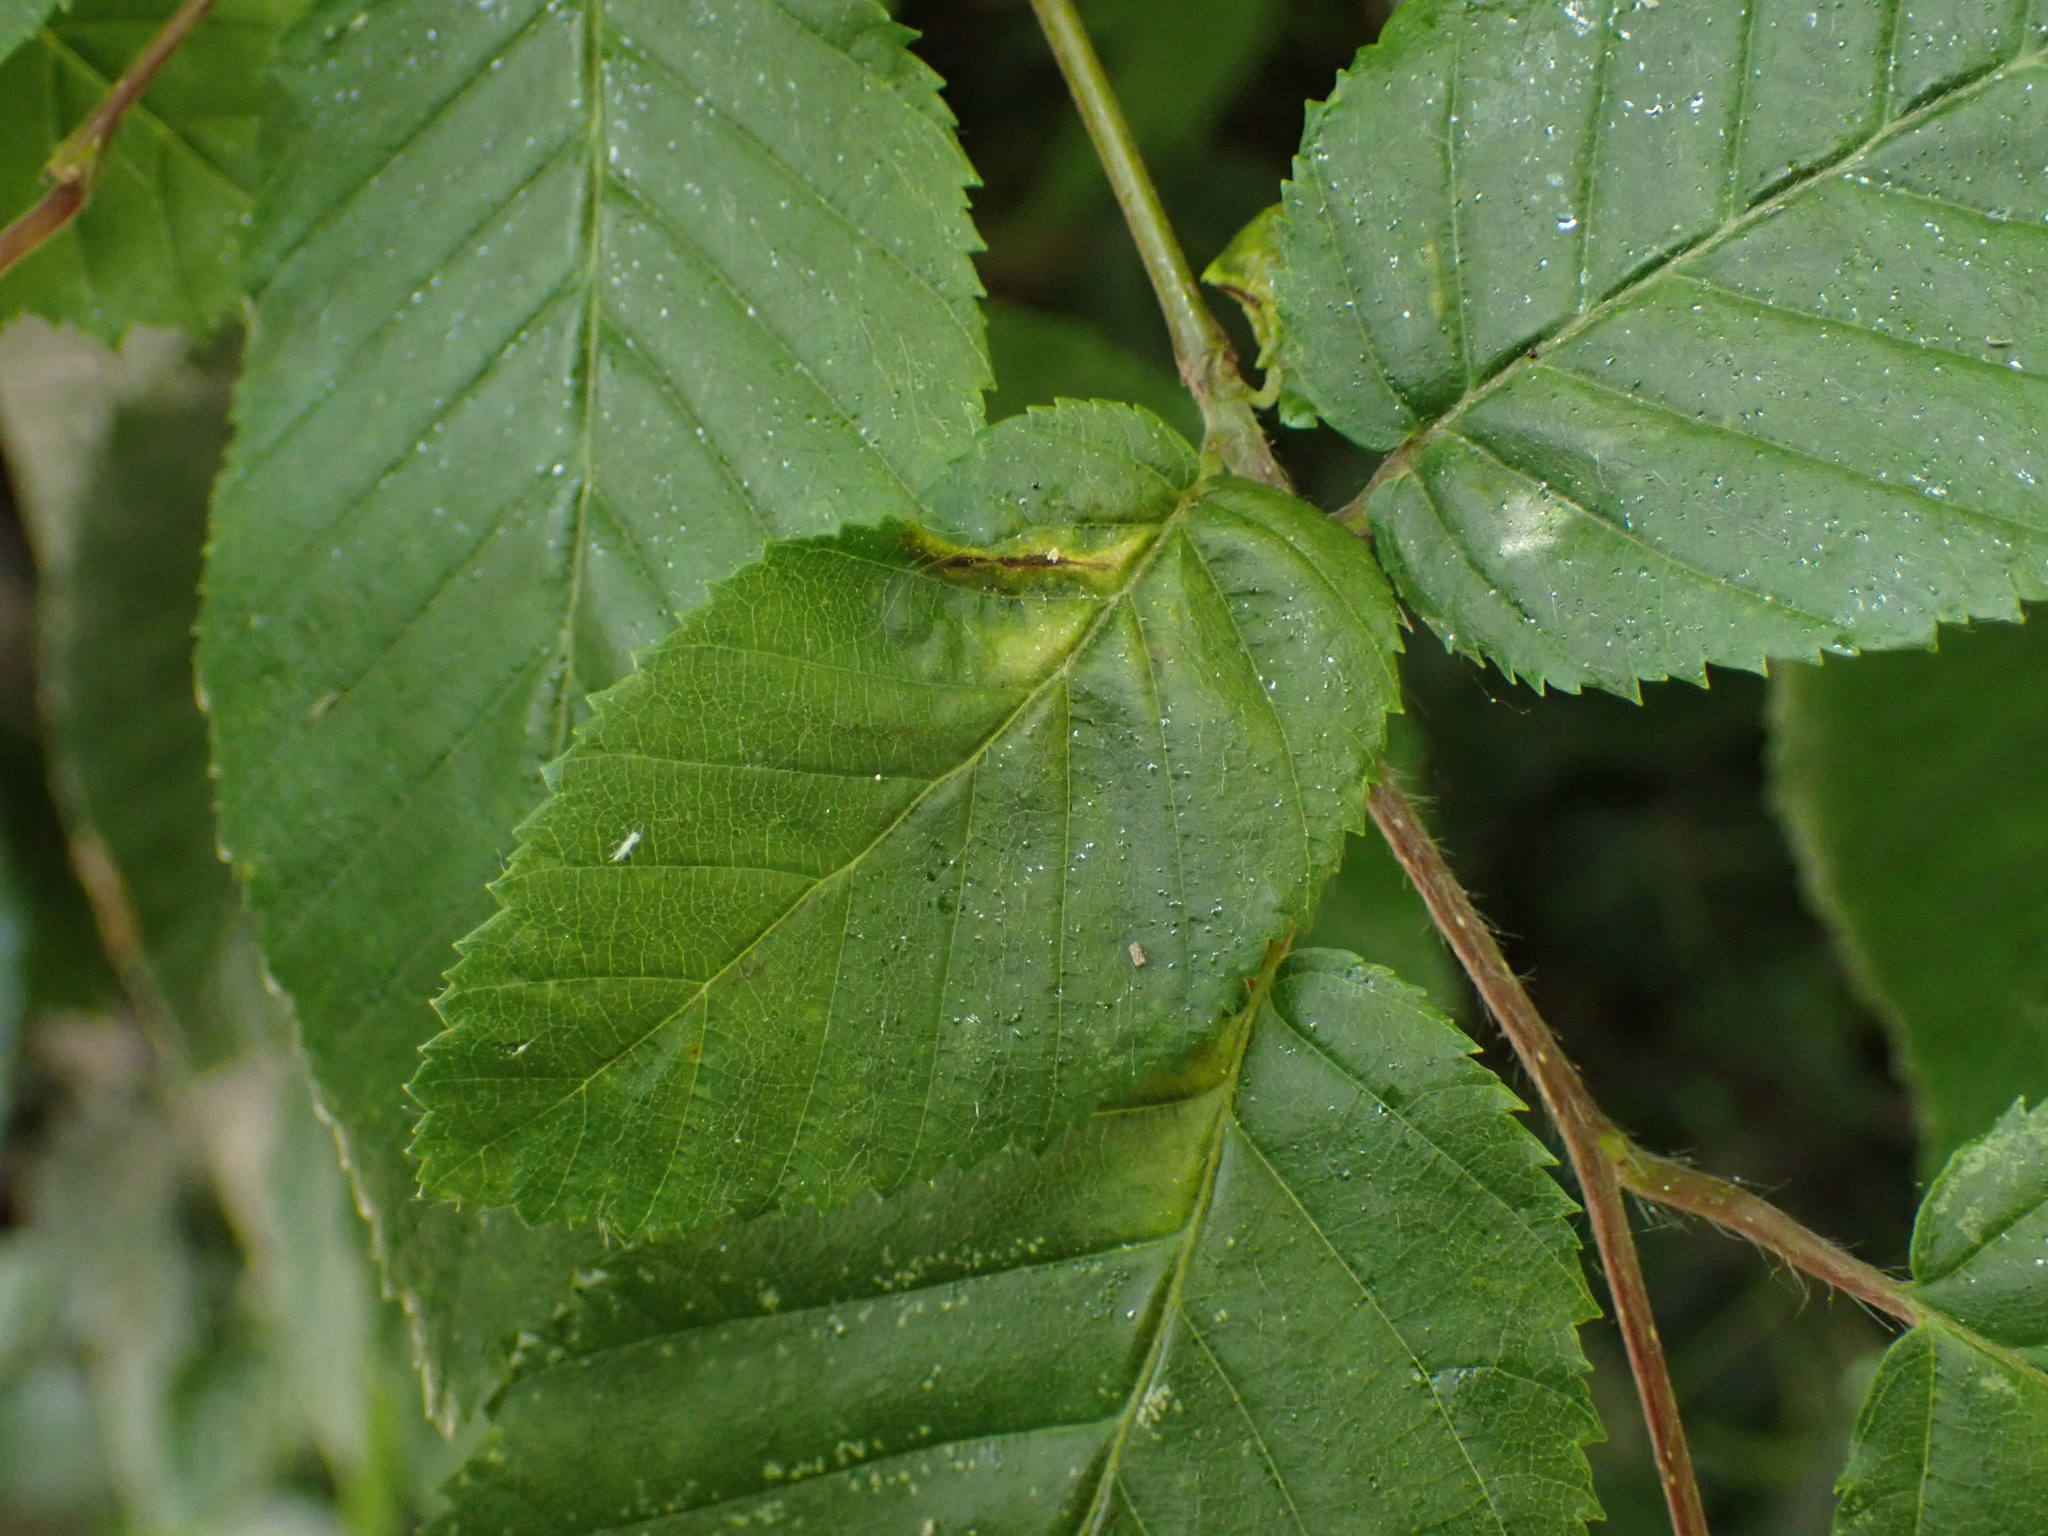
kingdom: Animalia
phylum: Arthropoda
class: Insecta
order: Diptera
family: Cecidomyiidae
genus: Contarinia
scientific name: Contarinia carpini
